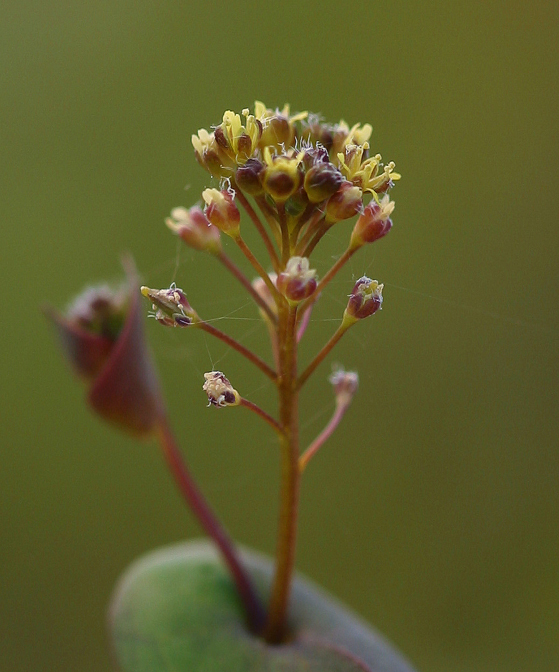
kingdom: Plantae
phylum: Tracheophyta
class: Magnoliopsida
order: Brassicales
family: Brassicaceae
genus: Lepidium
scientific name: Lepidium perfoliatum
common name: Perfoliate pepperwort
